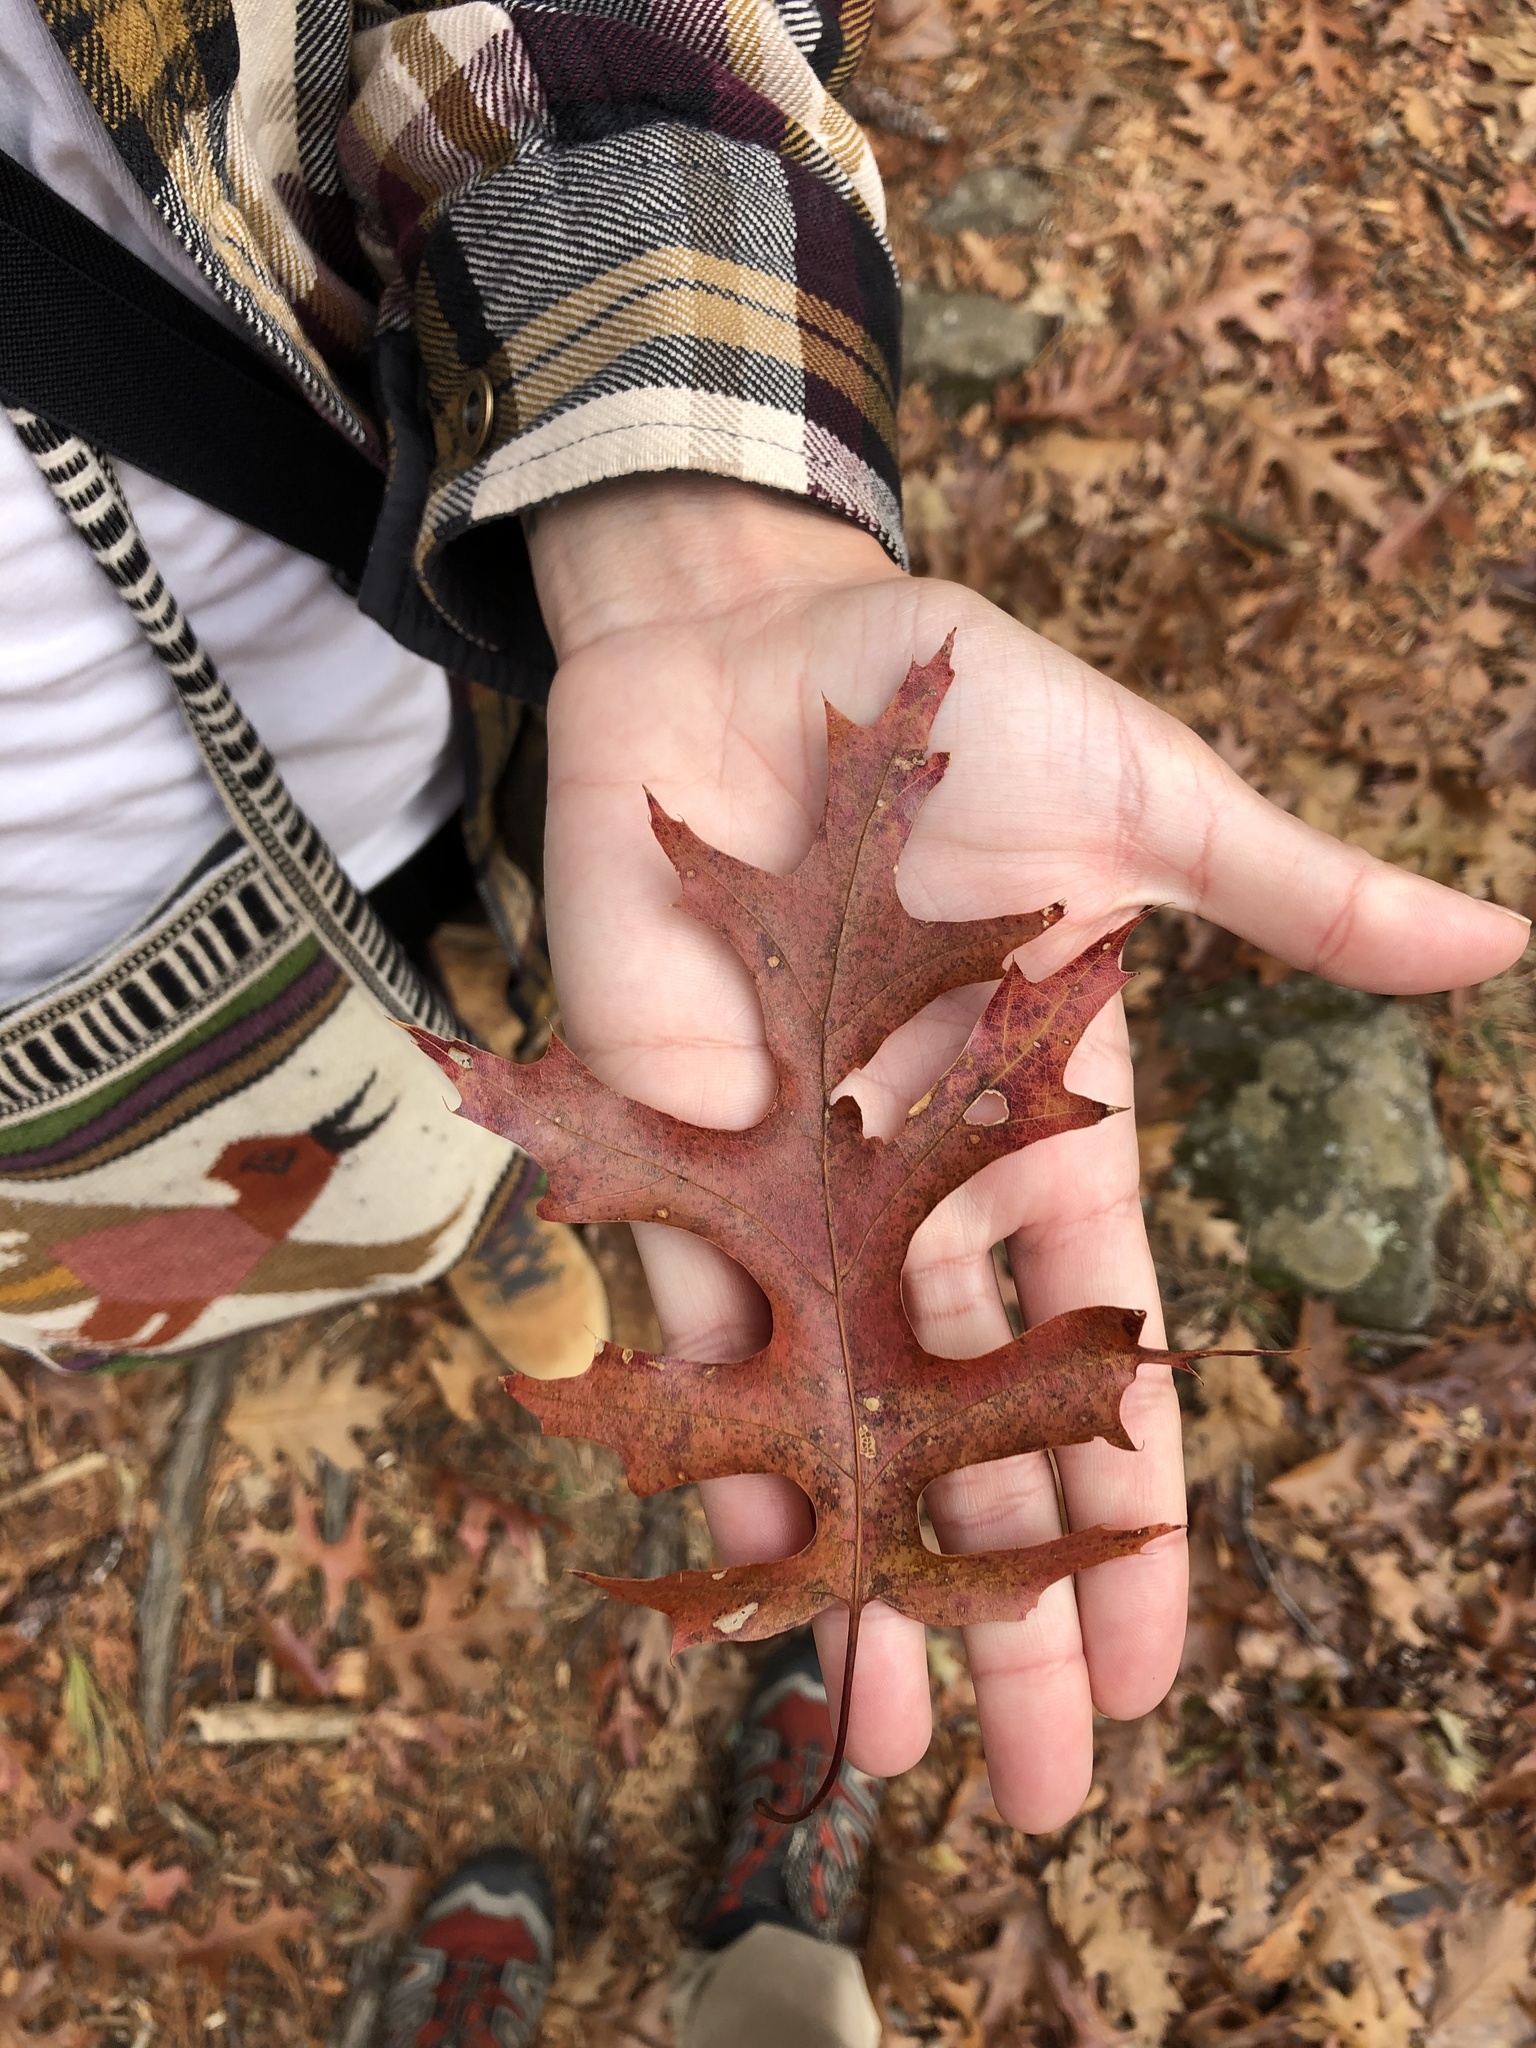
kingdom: Plantae
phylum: Tracheophyta
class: Magnoliopsida
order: Fagales
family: Fagaceae
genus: Quercus
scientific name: Quercus coccinea
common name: Scarlet oak
